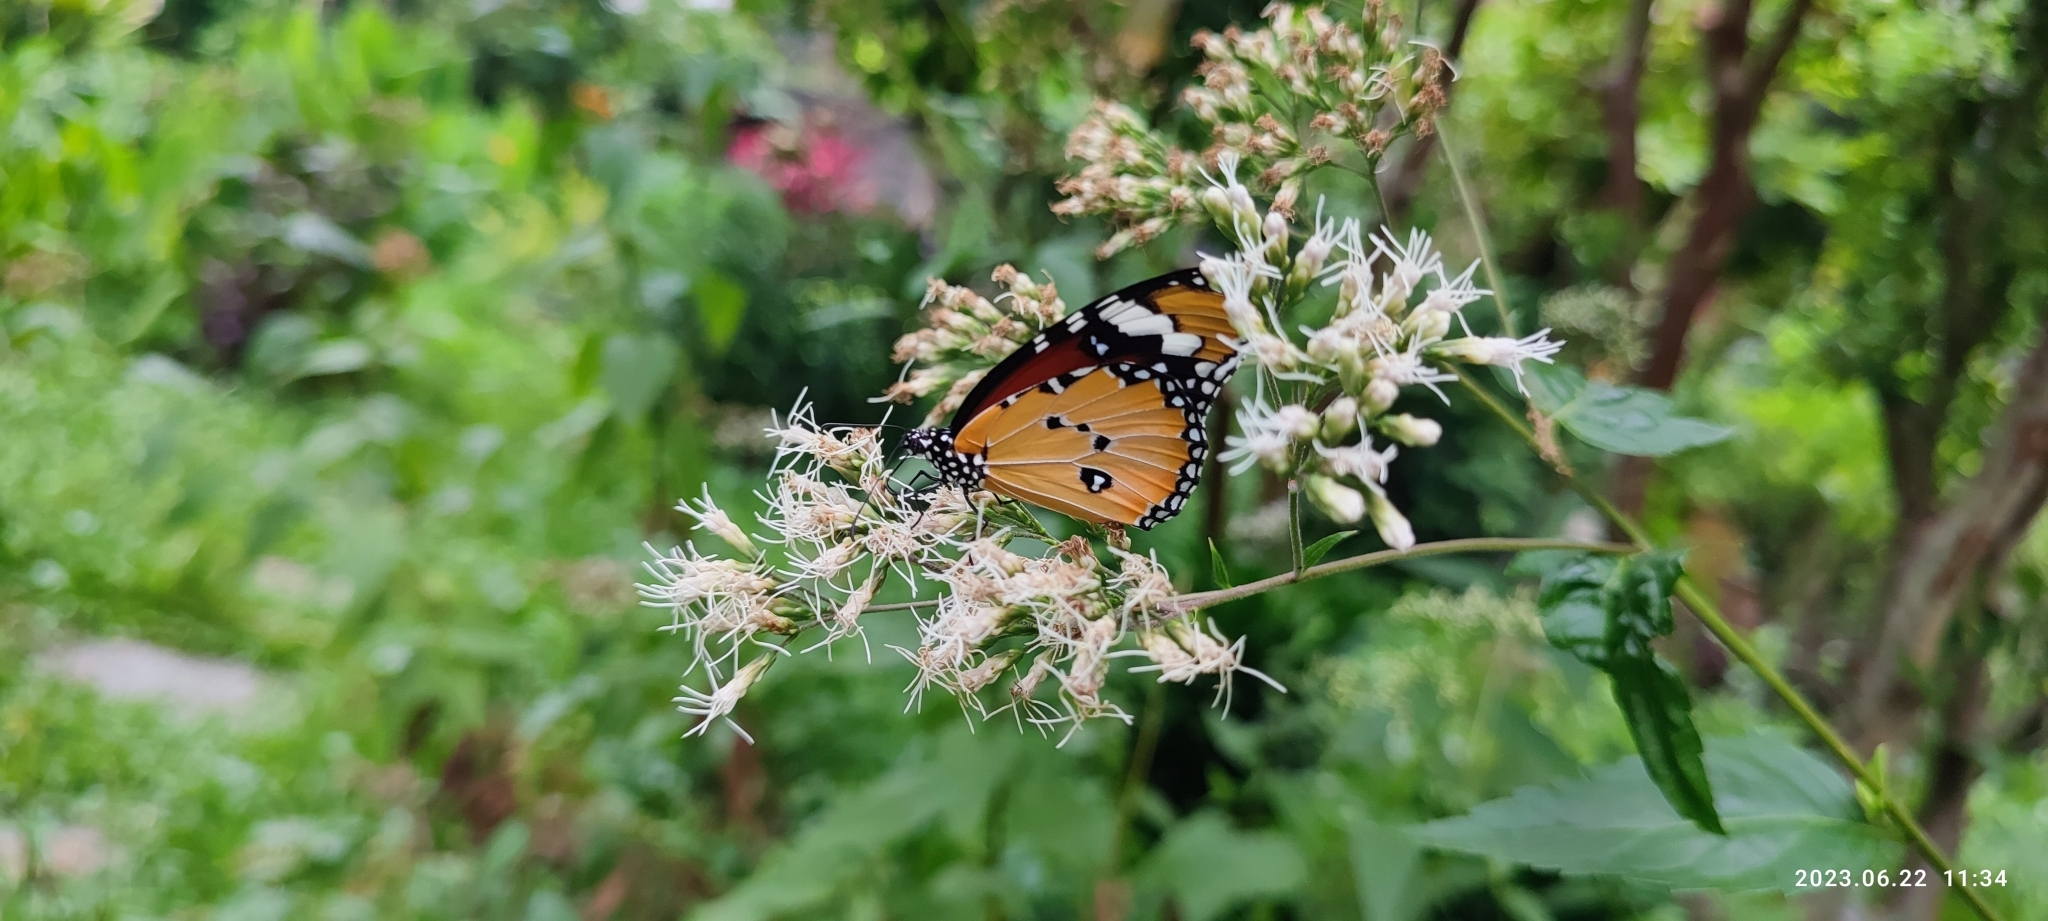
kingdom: Animalia
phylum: Arthropoda
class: Insecta
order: Lepidoptera
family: Nymphalidae
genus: Danaus
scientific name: Danaus chrysippus
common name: Plain tiger
